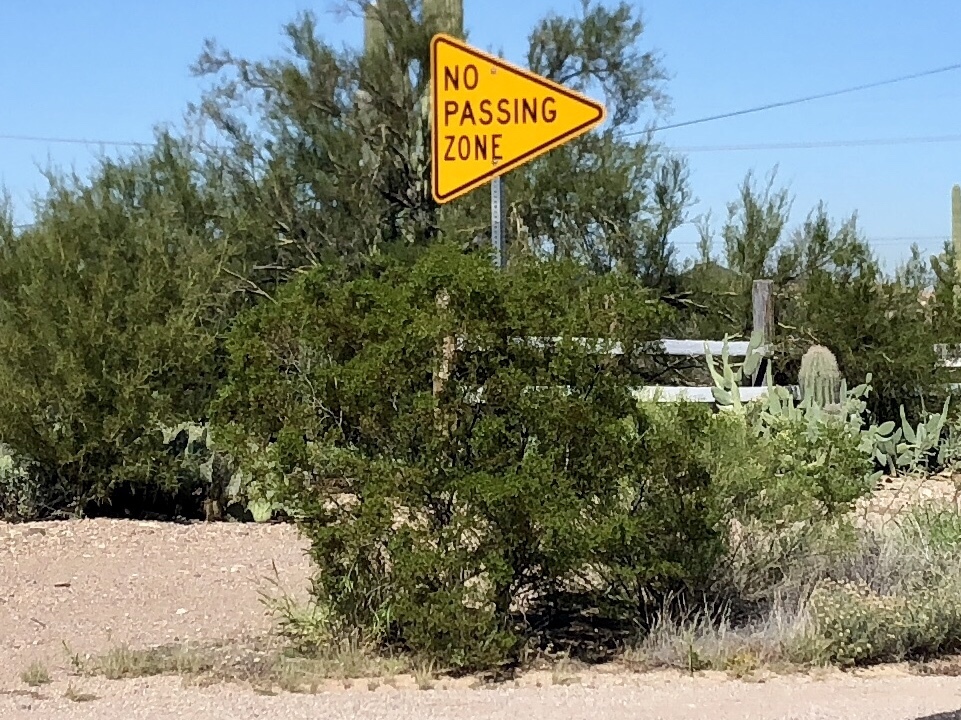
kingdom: Plantae
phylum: Tracheophyta
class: Magnoliopsida
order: Zygophyllales
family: Zygophyllaceae
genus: Larrea
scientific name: Larrea tridentata
